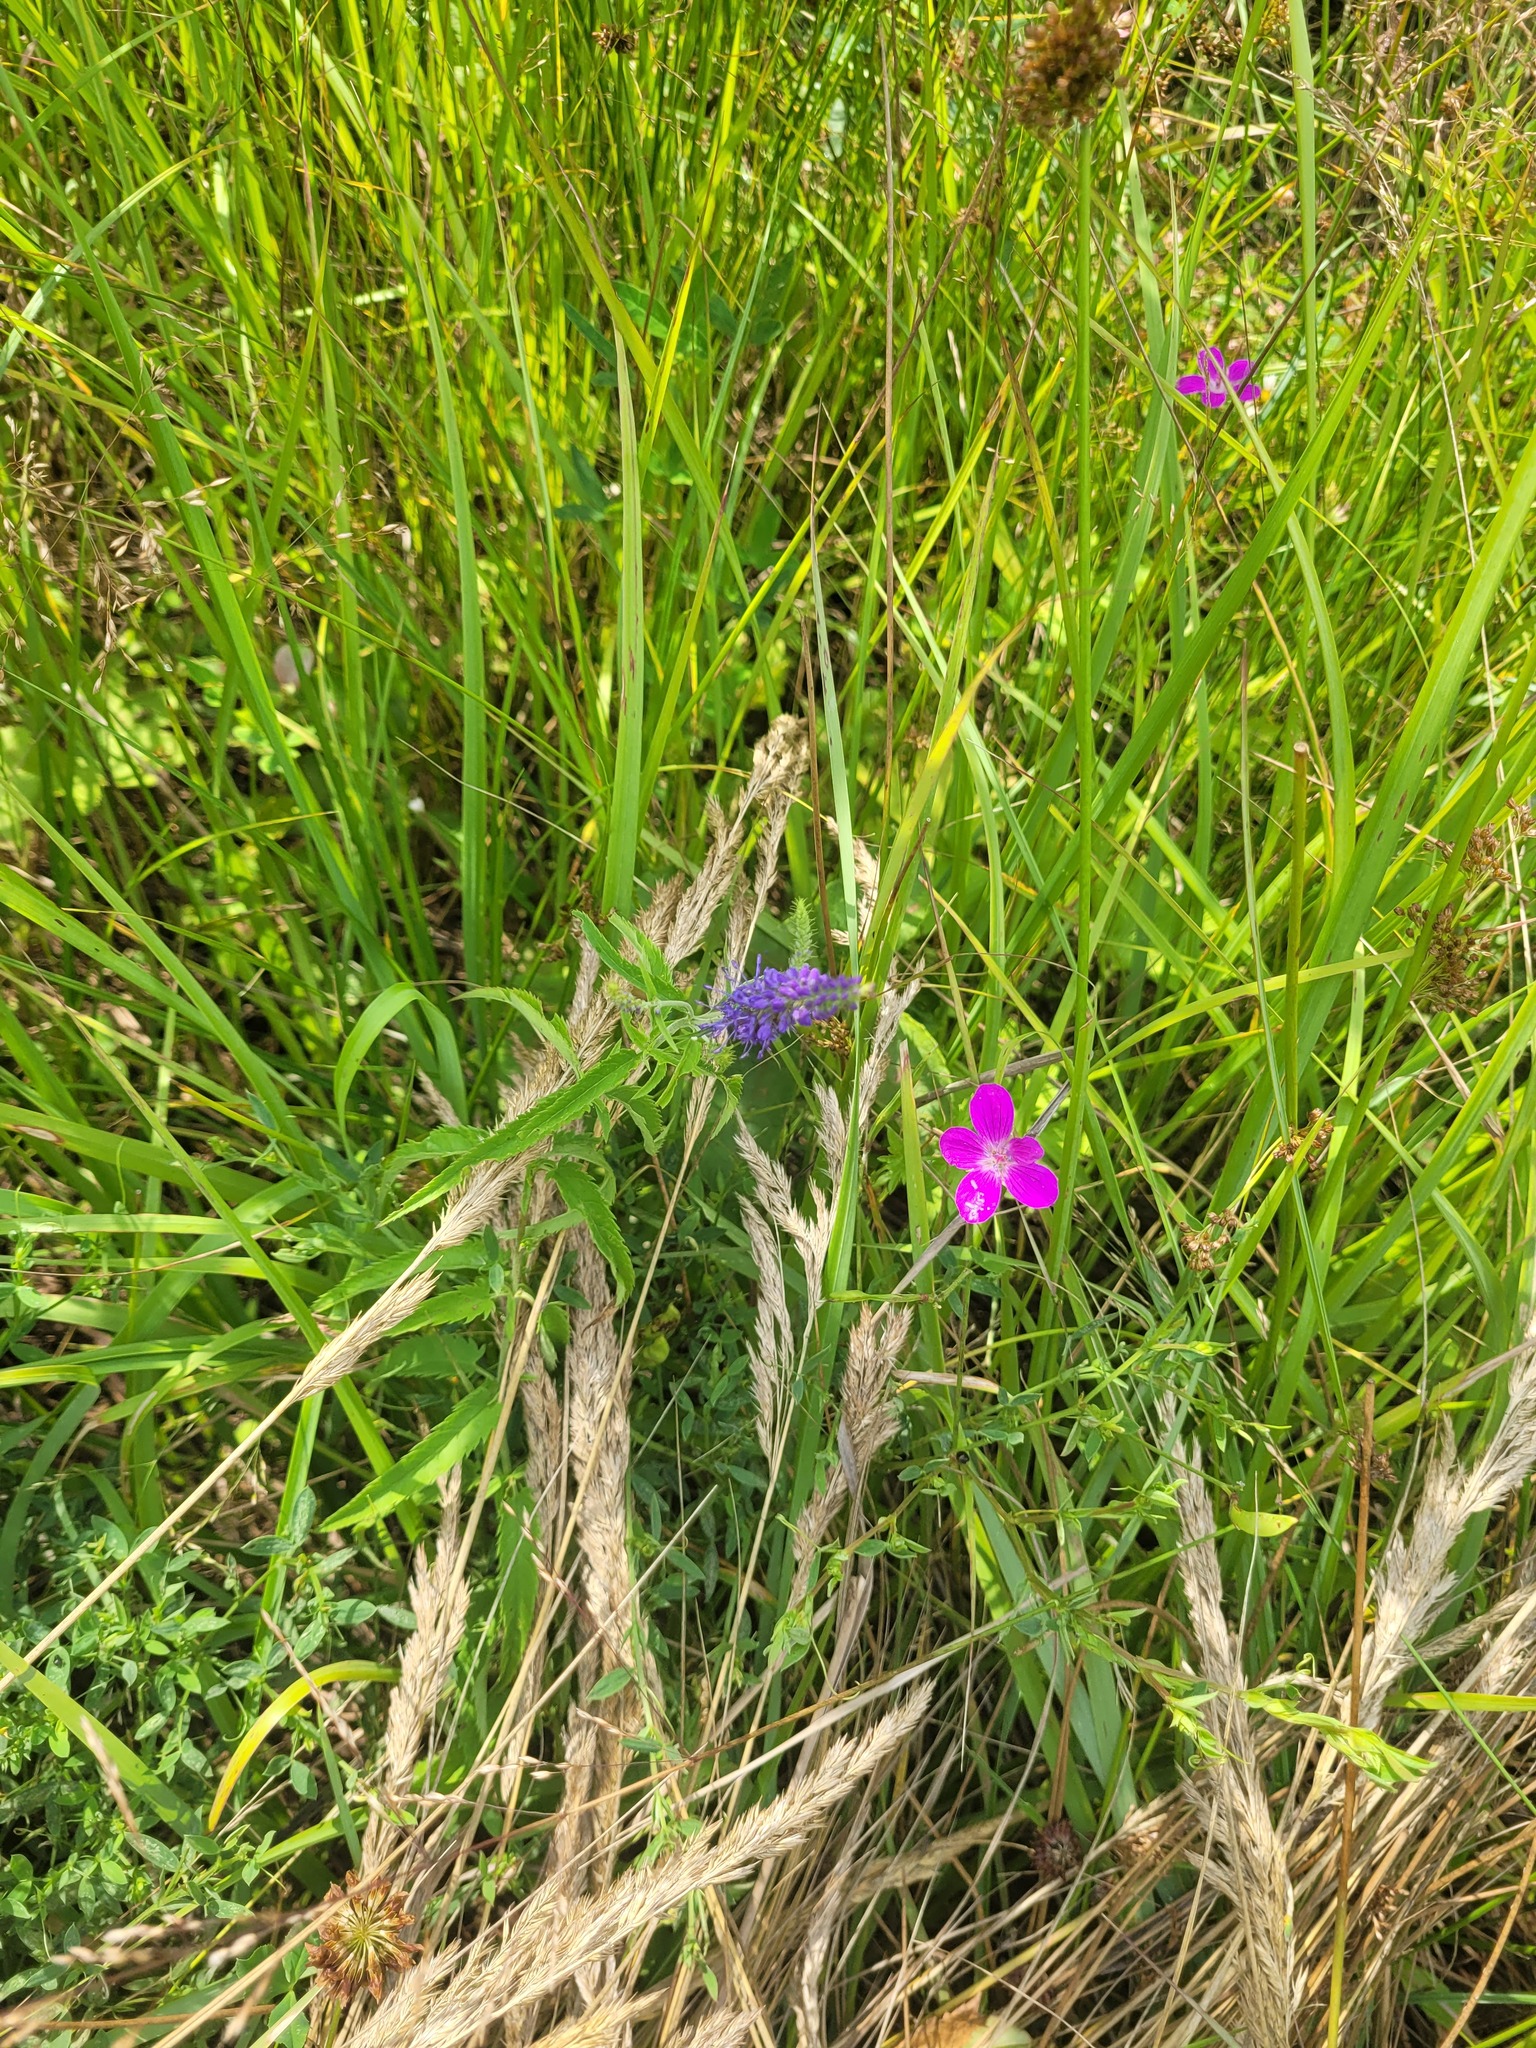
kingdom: Plantae
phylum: Tracheophyta
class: Magnoliopsida
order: Lamiales
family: Plantaginaceae
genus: Veronica
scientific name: Veronica longifolia
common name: Garden speedwell
